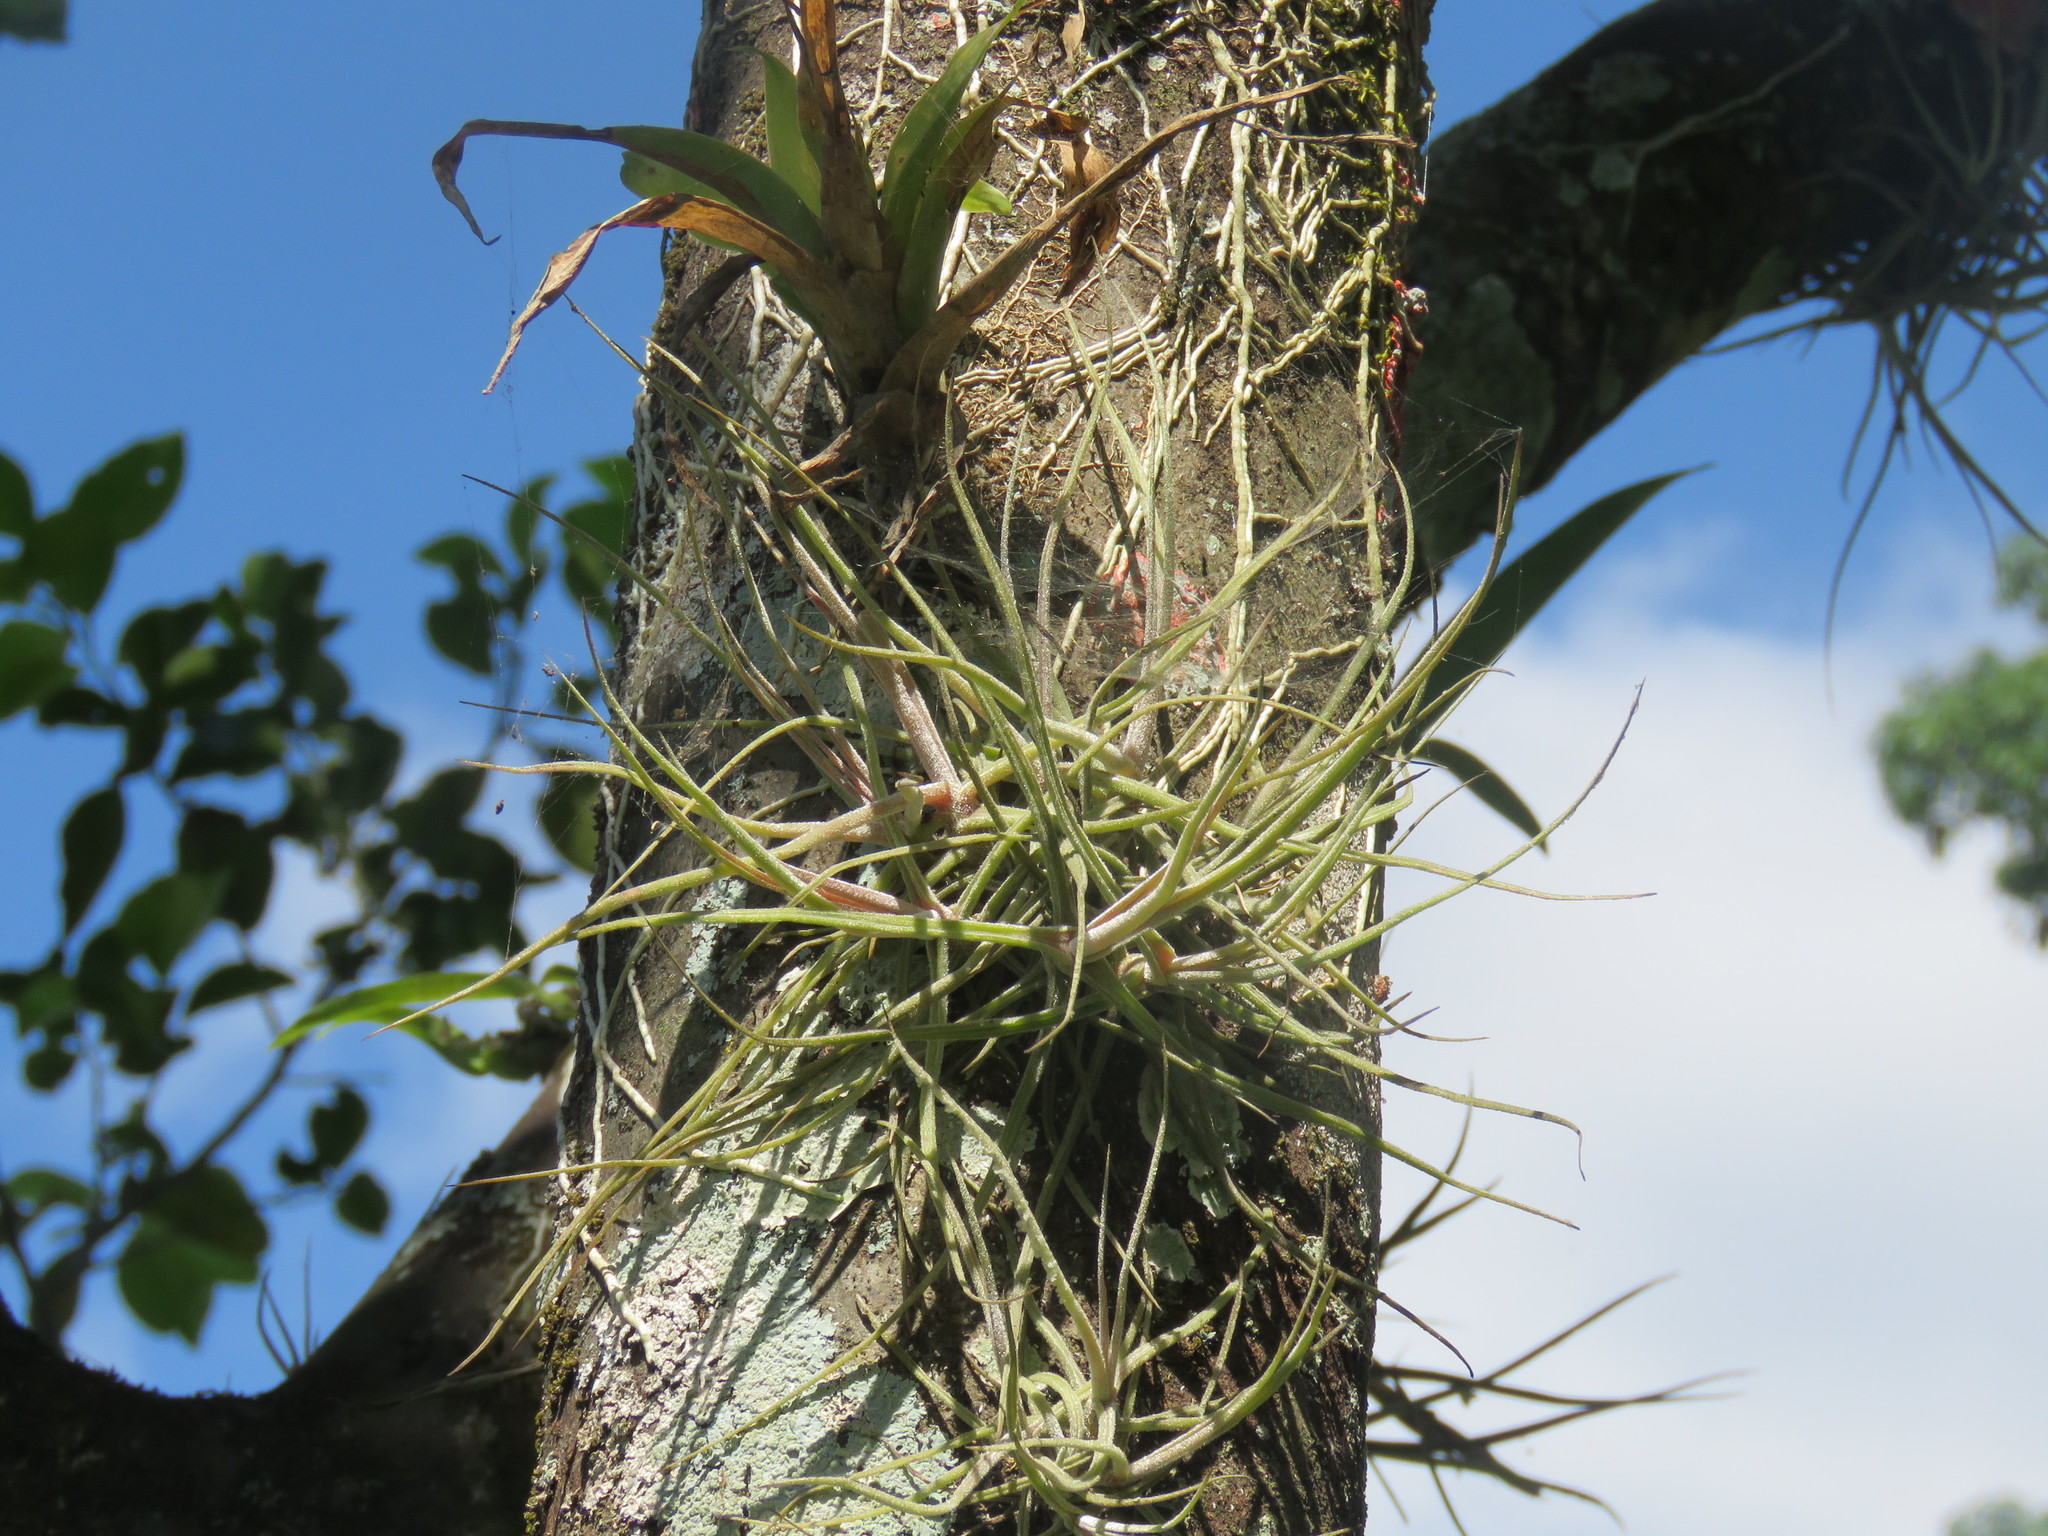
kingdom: Plantae
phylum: Tracheophyta
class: Liliopsida
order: Poales
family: Bromeliaceae
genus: Tillandsia
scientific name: Tillandsia schiedeana
